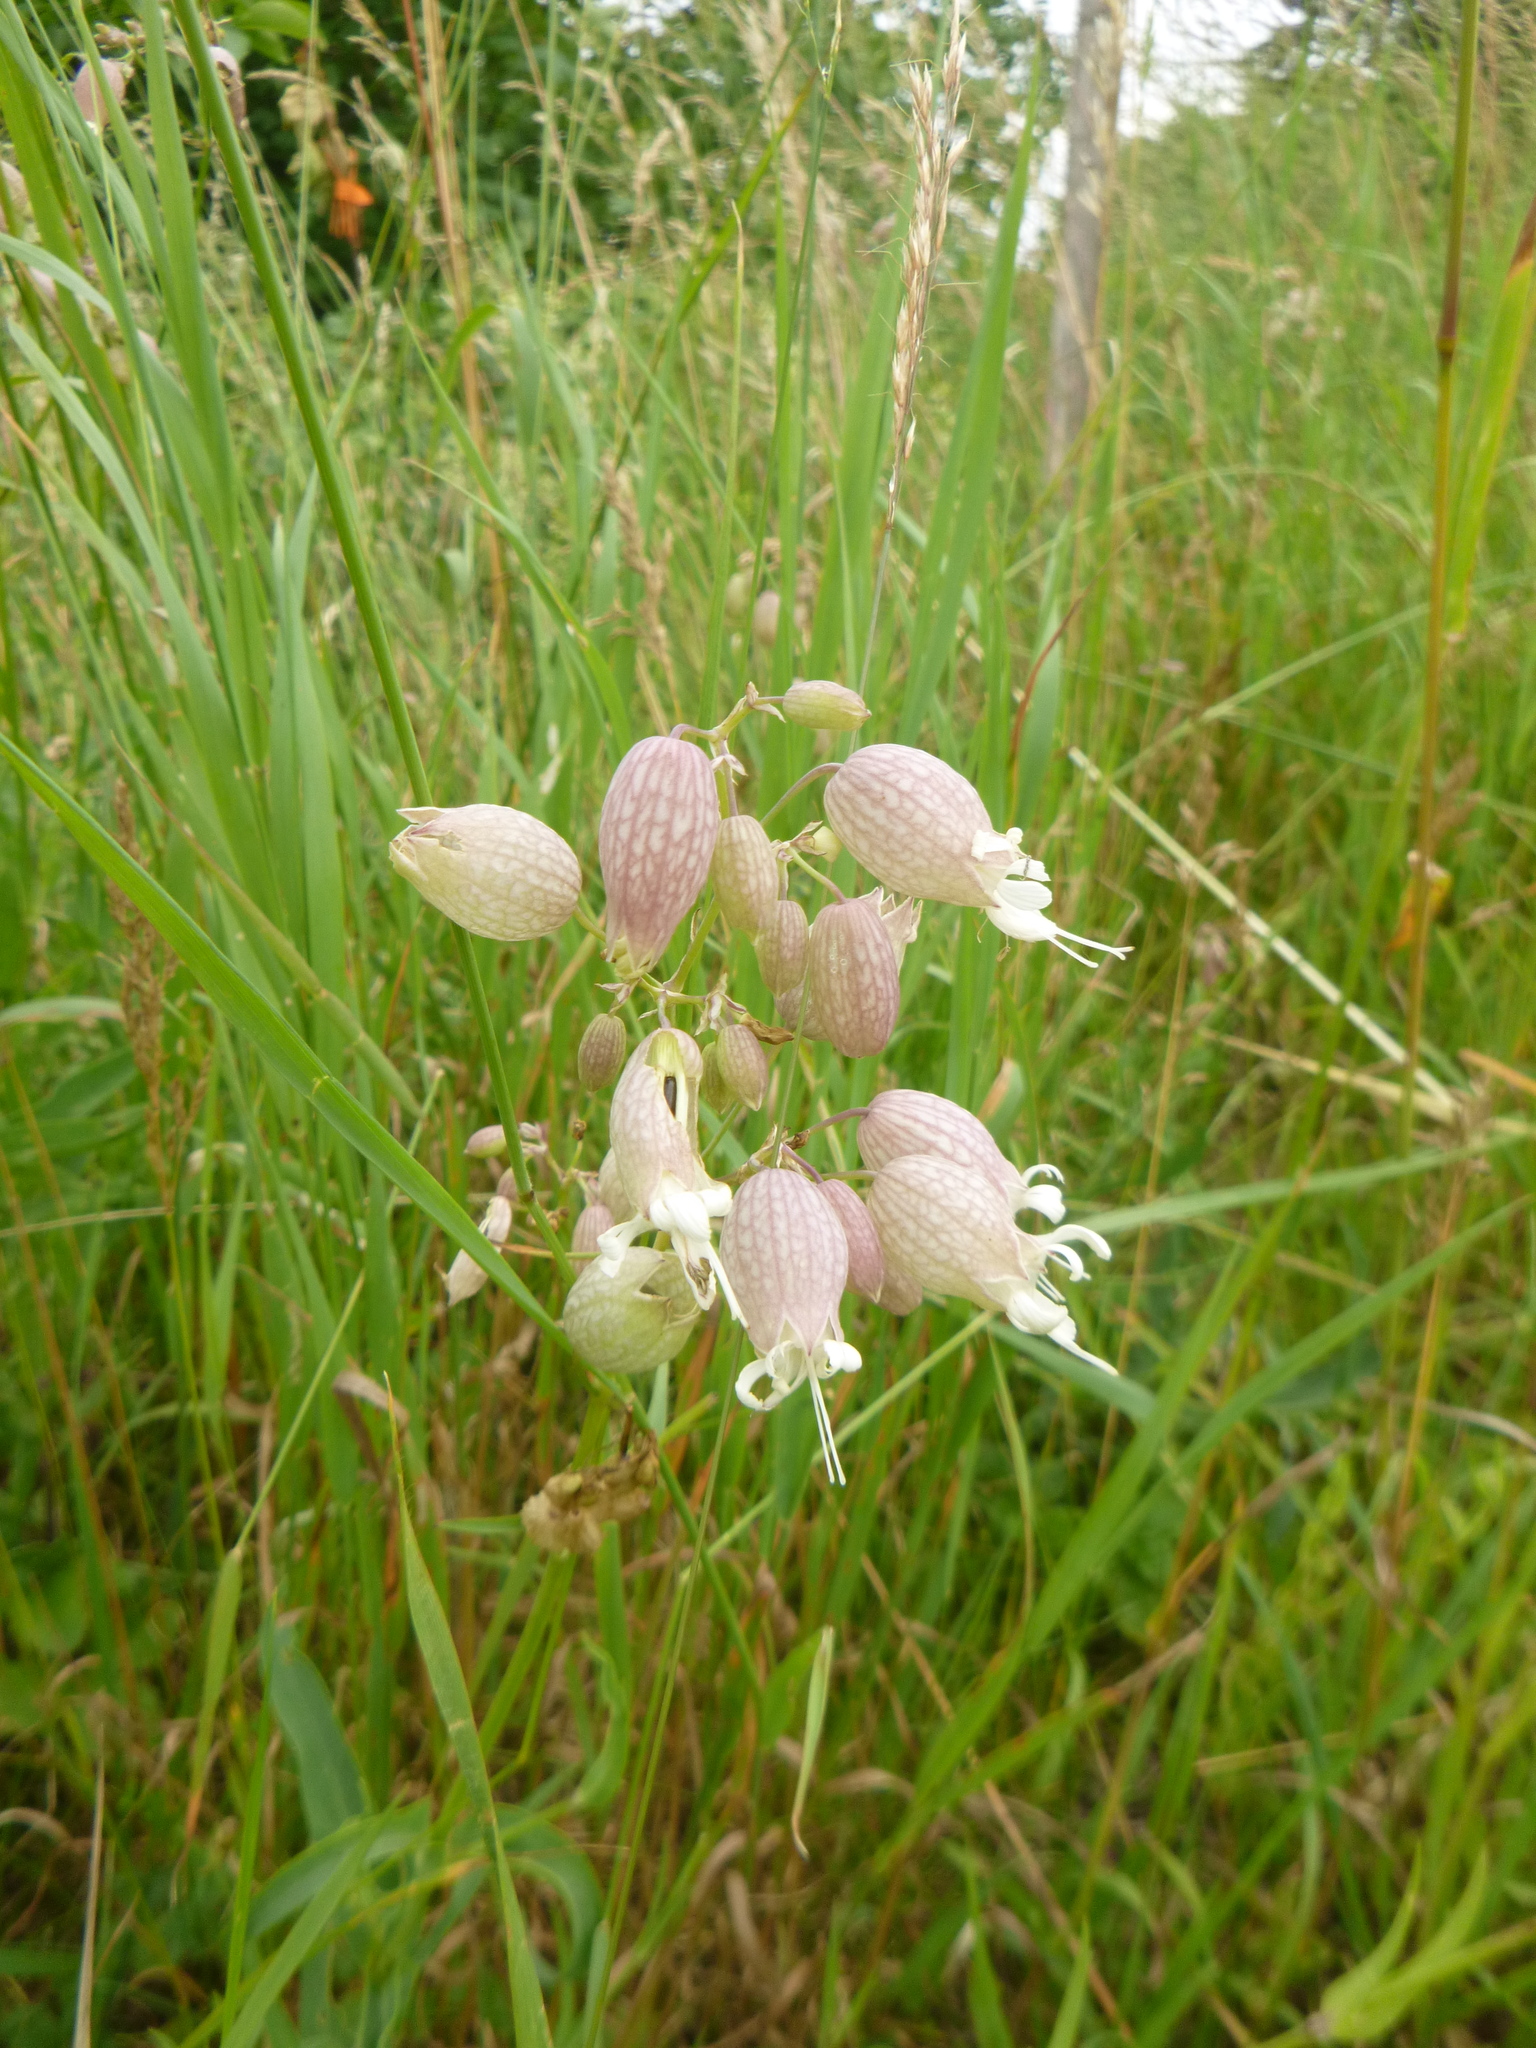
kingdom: Plantae
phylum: Tracheophyta
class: Magnoliopsida
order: Caryophyllales
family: Caryophyllaceae
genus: Silene
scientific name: Silene vulgaris
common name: Bladder campion
